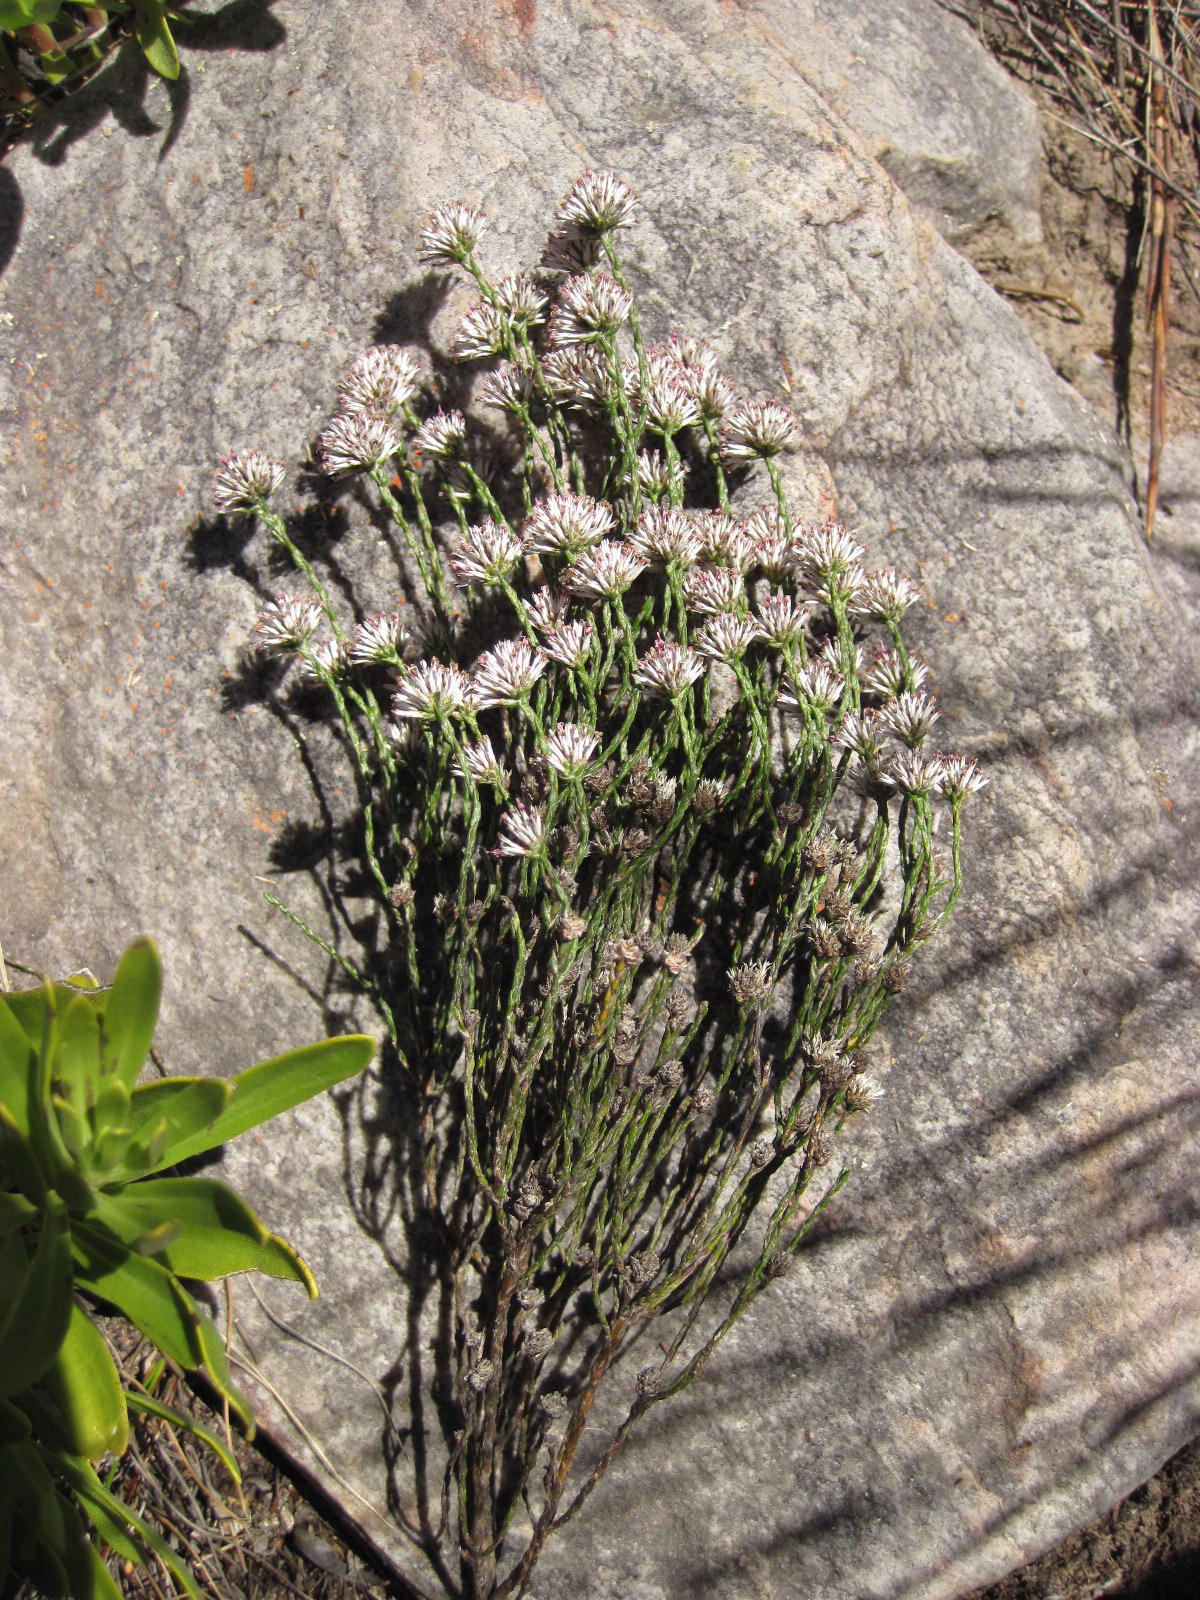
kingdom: Plantae
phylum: Tracheophyta
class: Magnoliopsida
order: Asterales
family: Asteraceae
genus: Stoebe
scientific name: Stoebe microphylla
